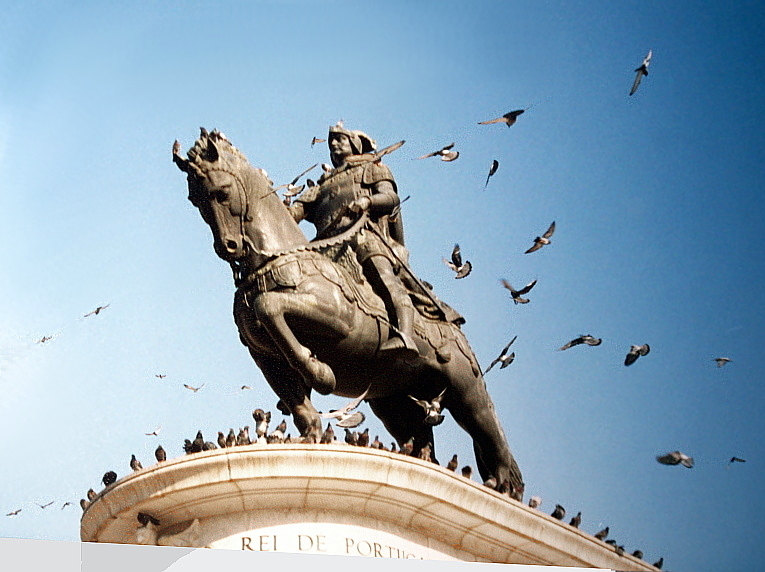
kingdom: Animalia
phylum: Chordata
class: Aves
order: Columbiformes
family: Columbidae
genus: Columba
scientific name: Columba livia
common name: Rock pigeon
